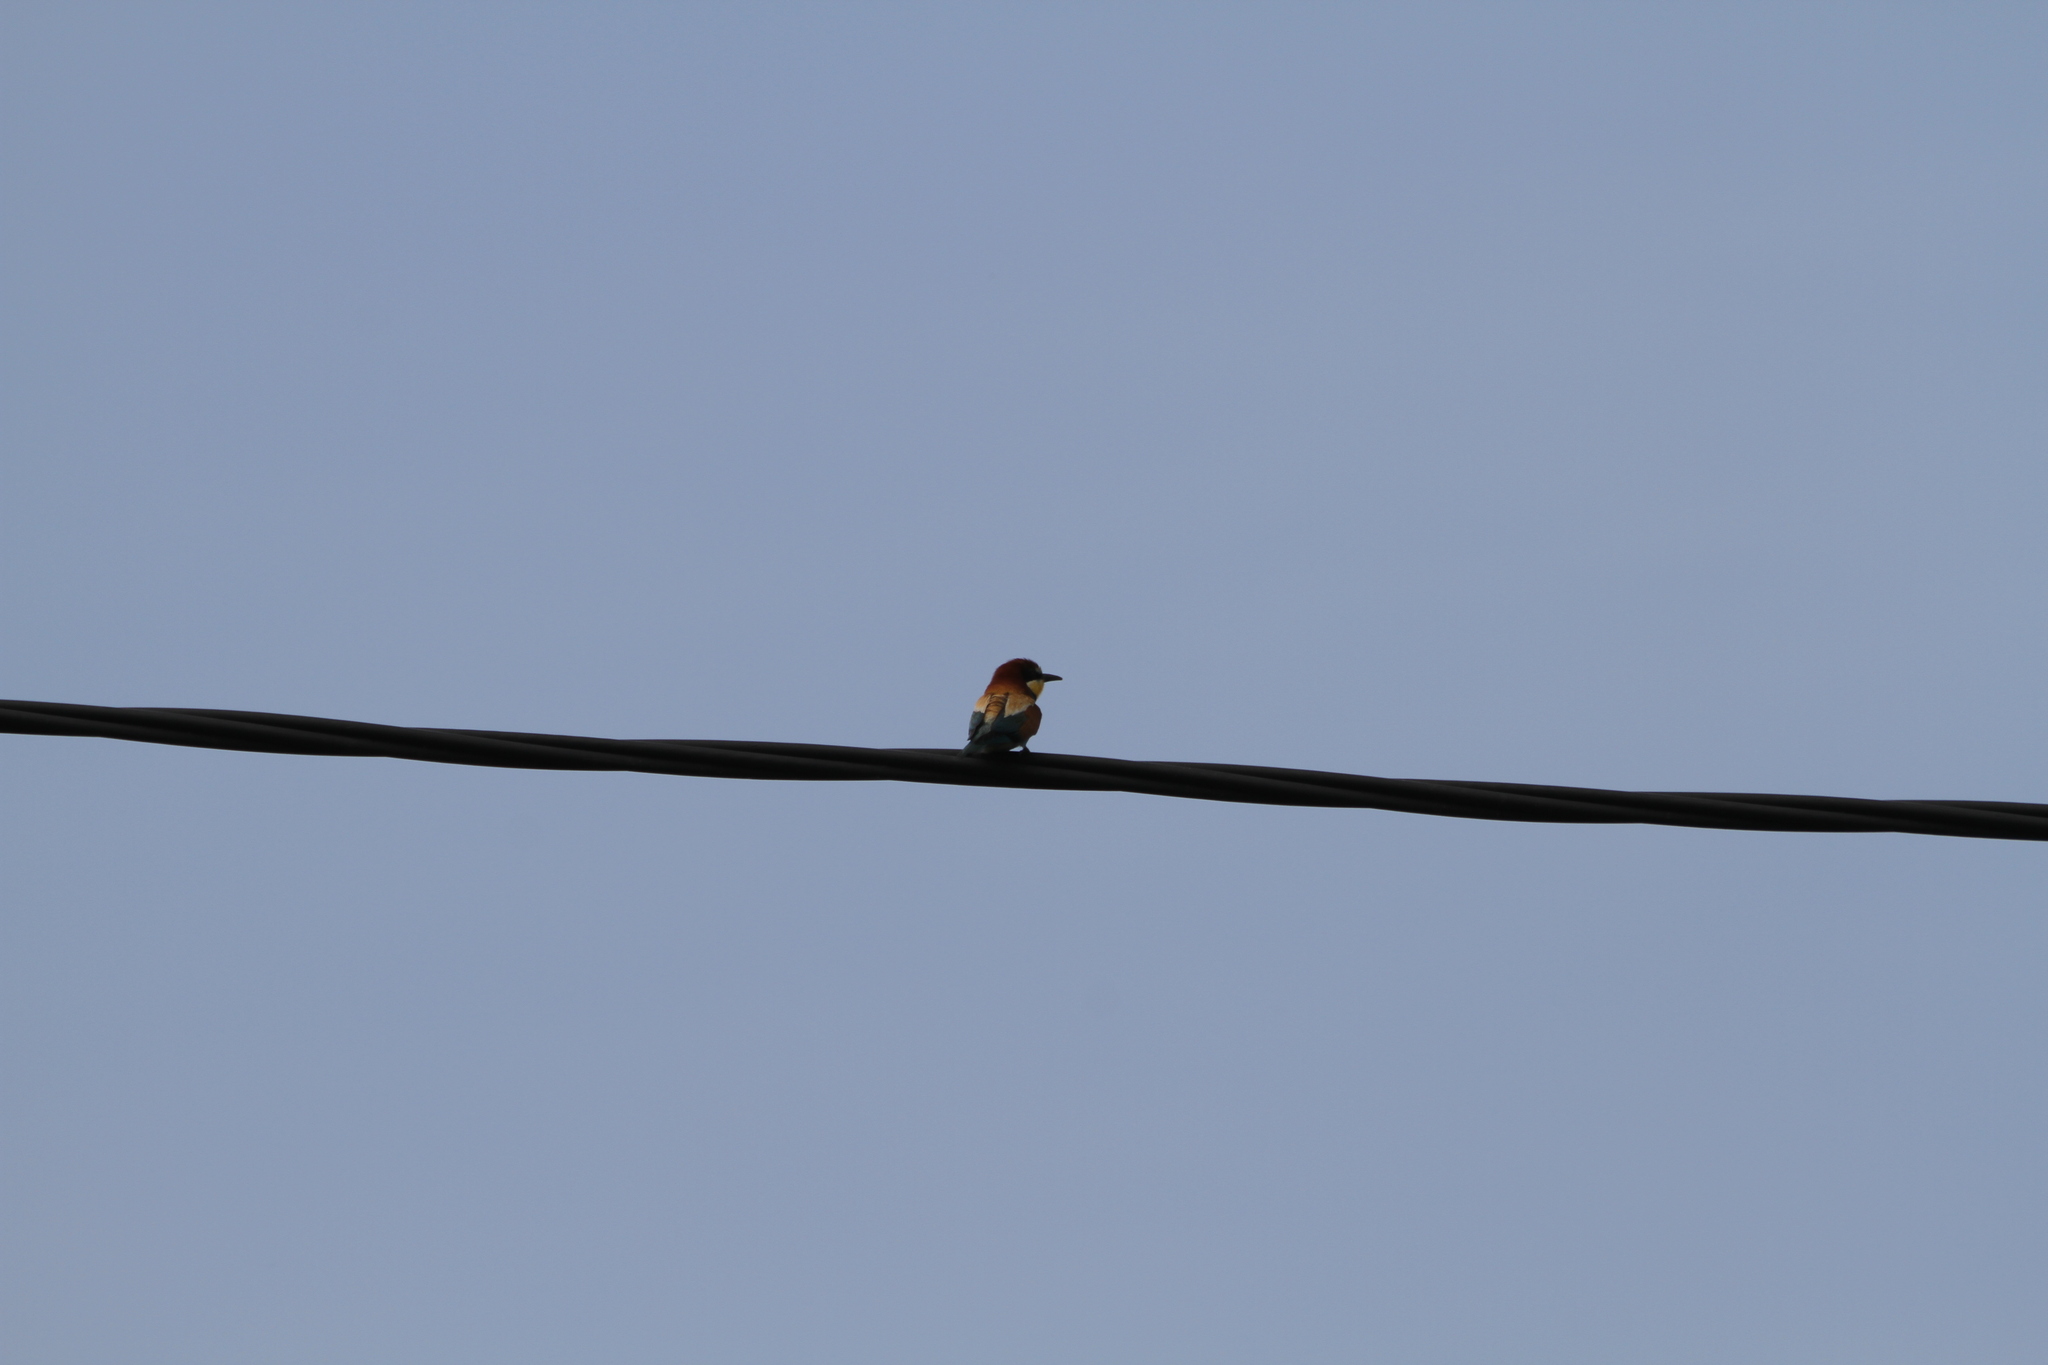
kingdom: Animalia
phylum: Chordata
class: Aves
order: Coraciiformes
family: Meropidae
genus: Merops
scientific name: Merops apiaster
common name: European bee-eater
